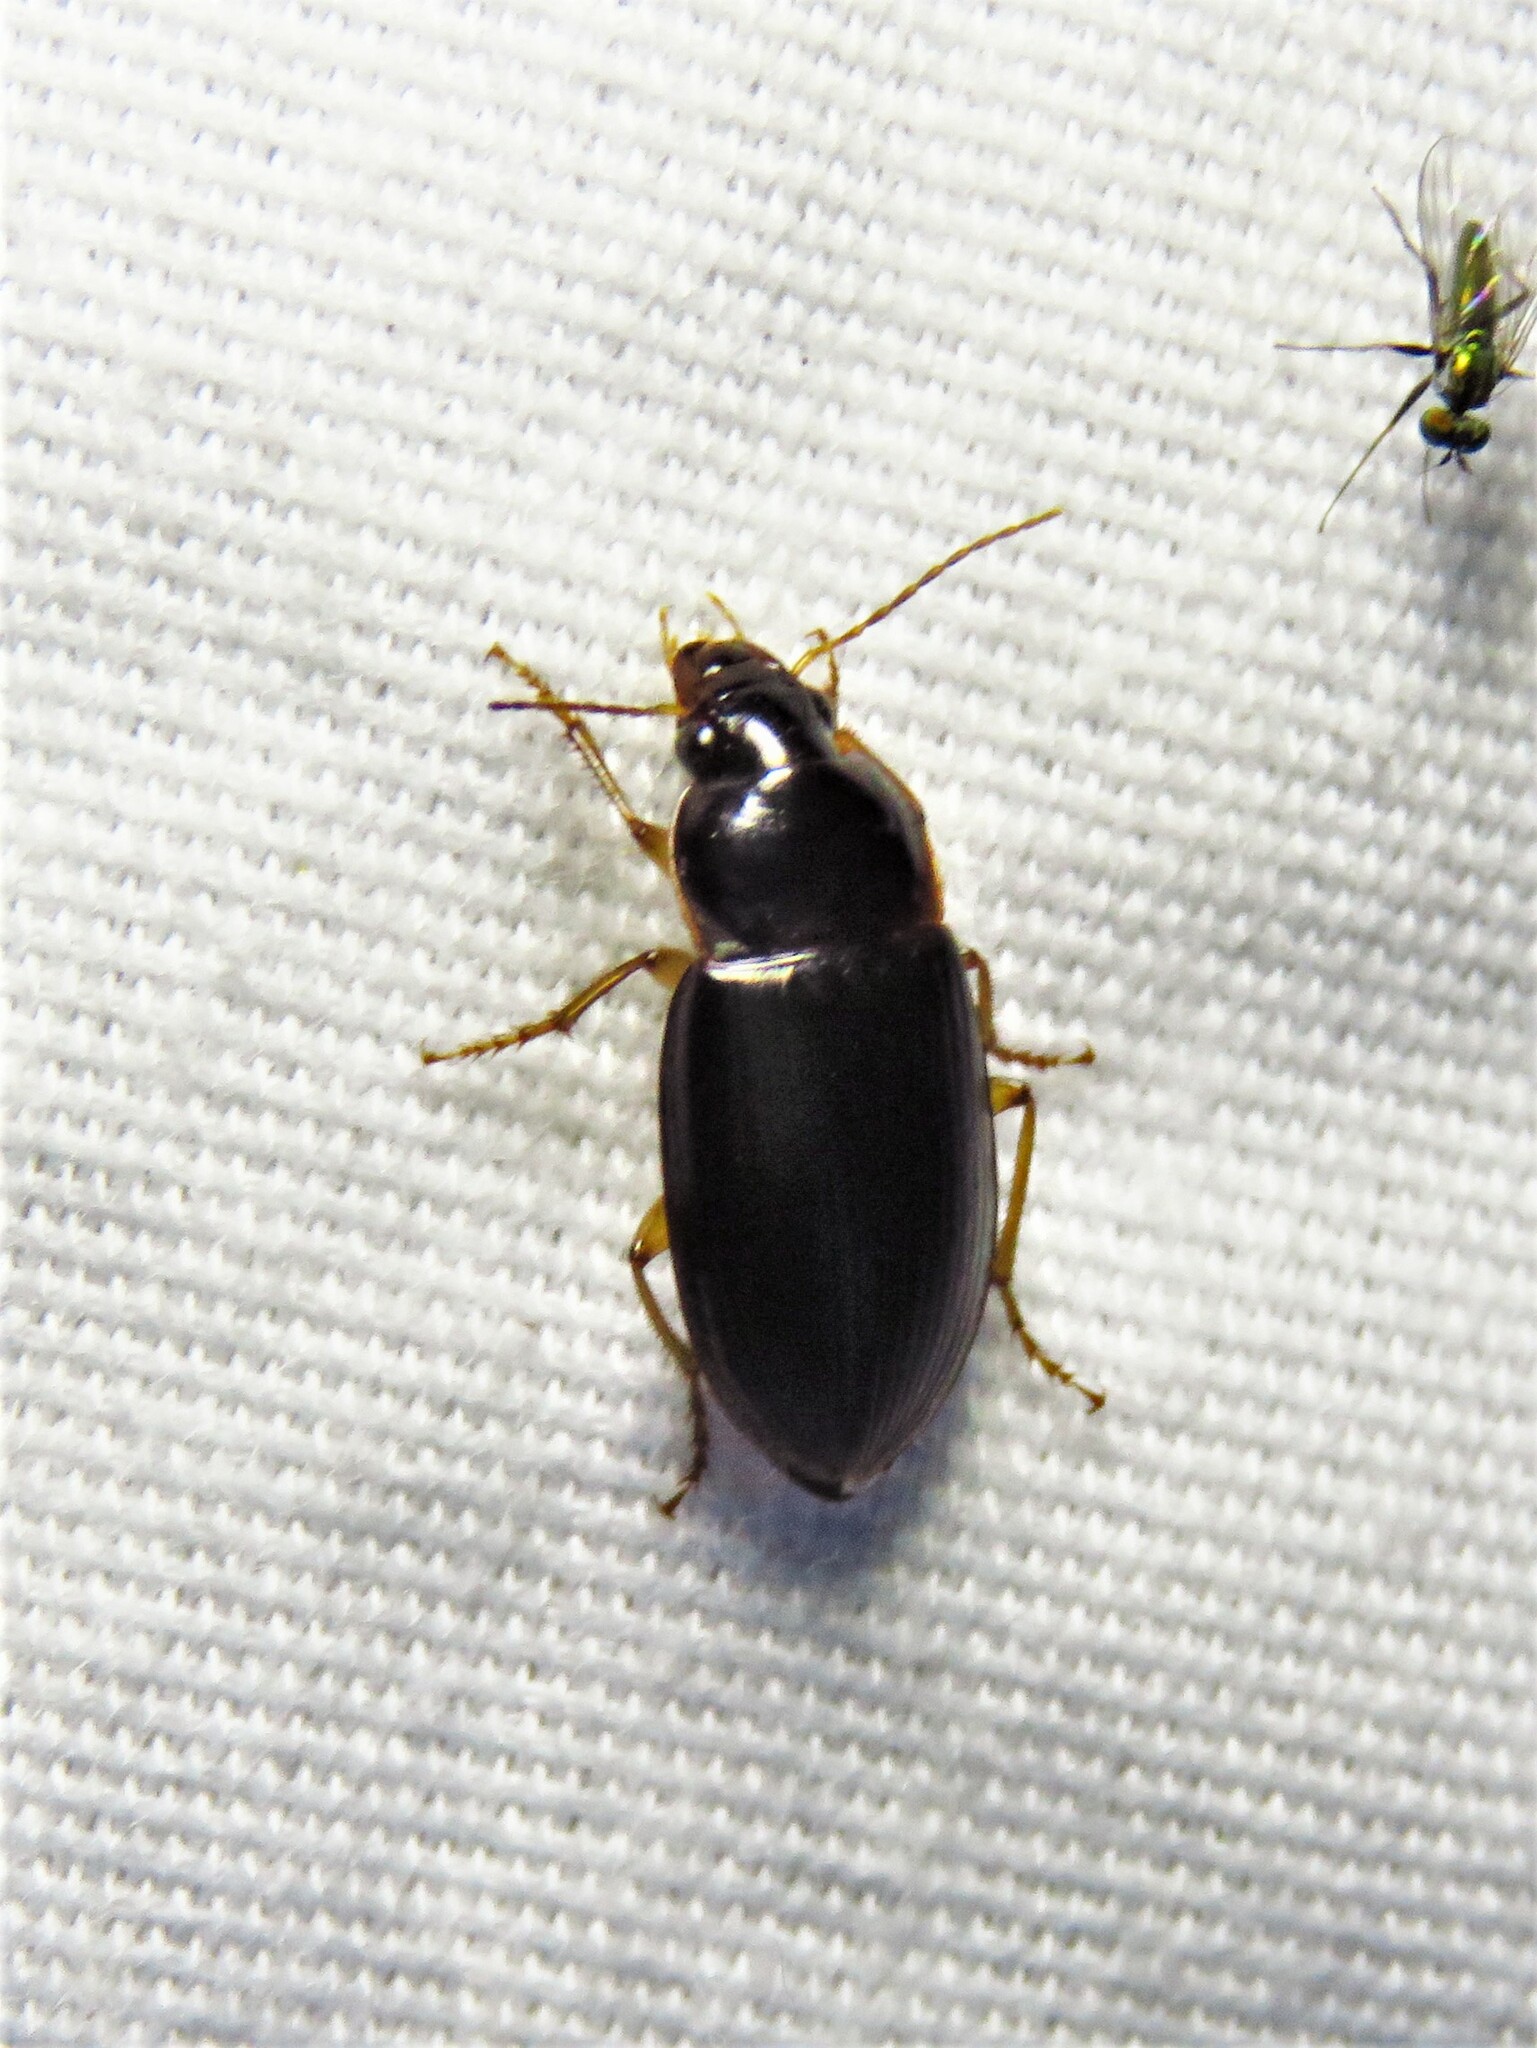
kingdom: Animalia
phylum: Arthropoda
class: Insecta
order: Coleoptera
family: Carabidae
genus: Notiobia
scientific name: Notiobia terminata
